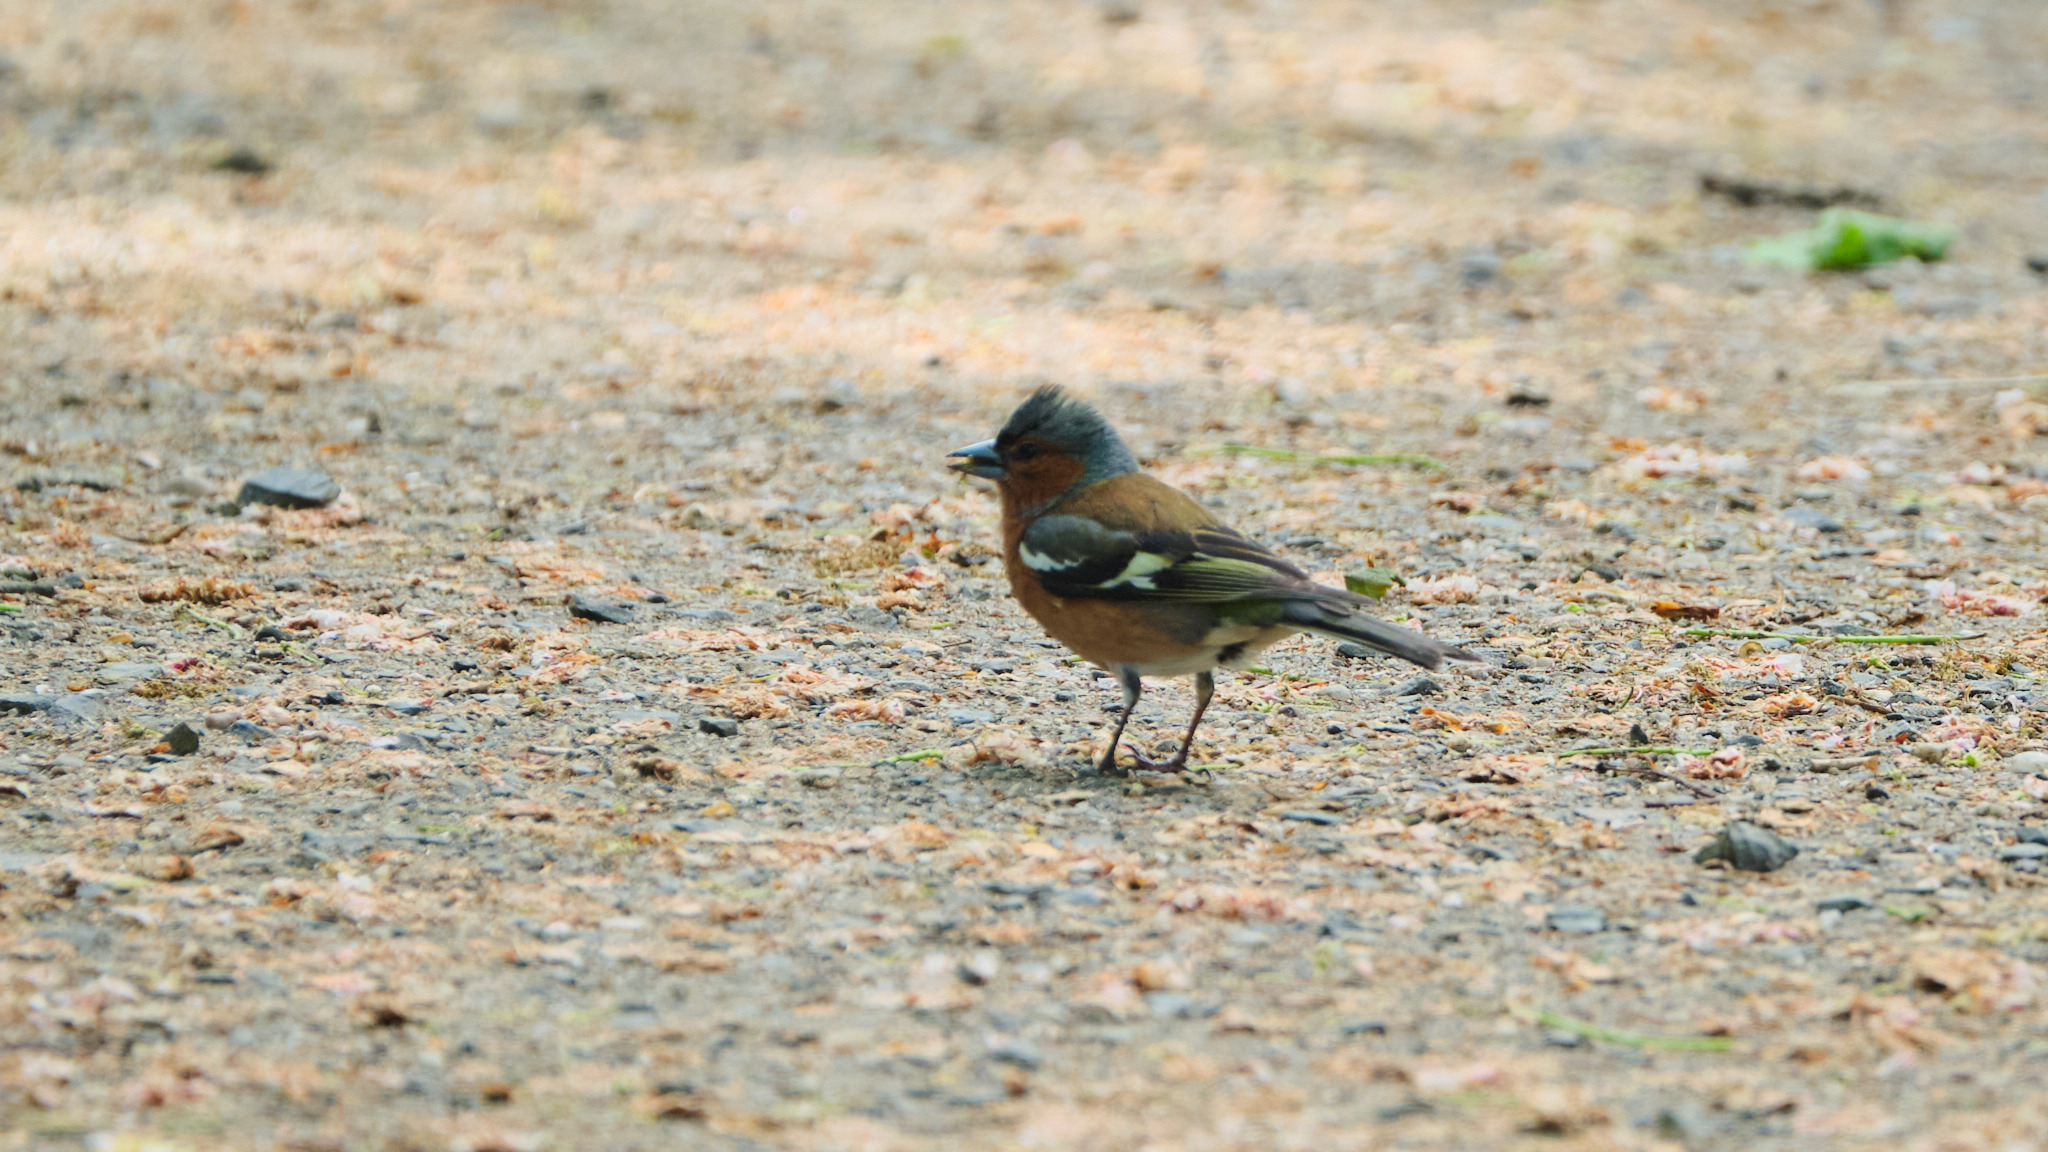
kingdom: Animalia
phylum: Chordata
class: Aves
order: Passeriformes
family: Fringillidae
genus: Fringilla
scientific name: Fringilla coelebs
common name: Common chaffinch
